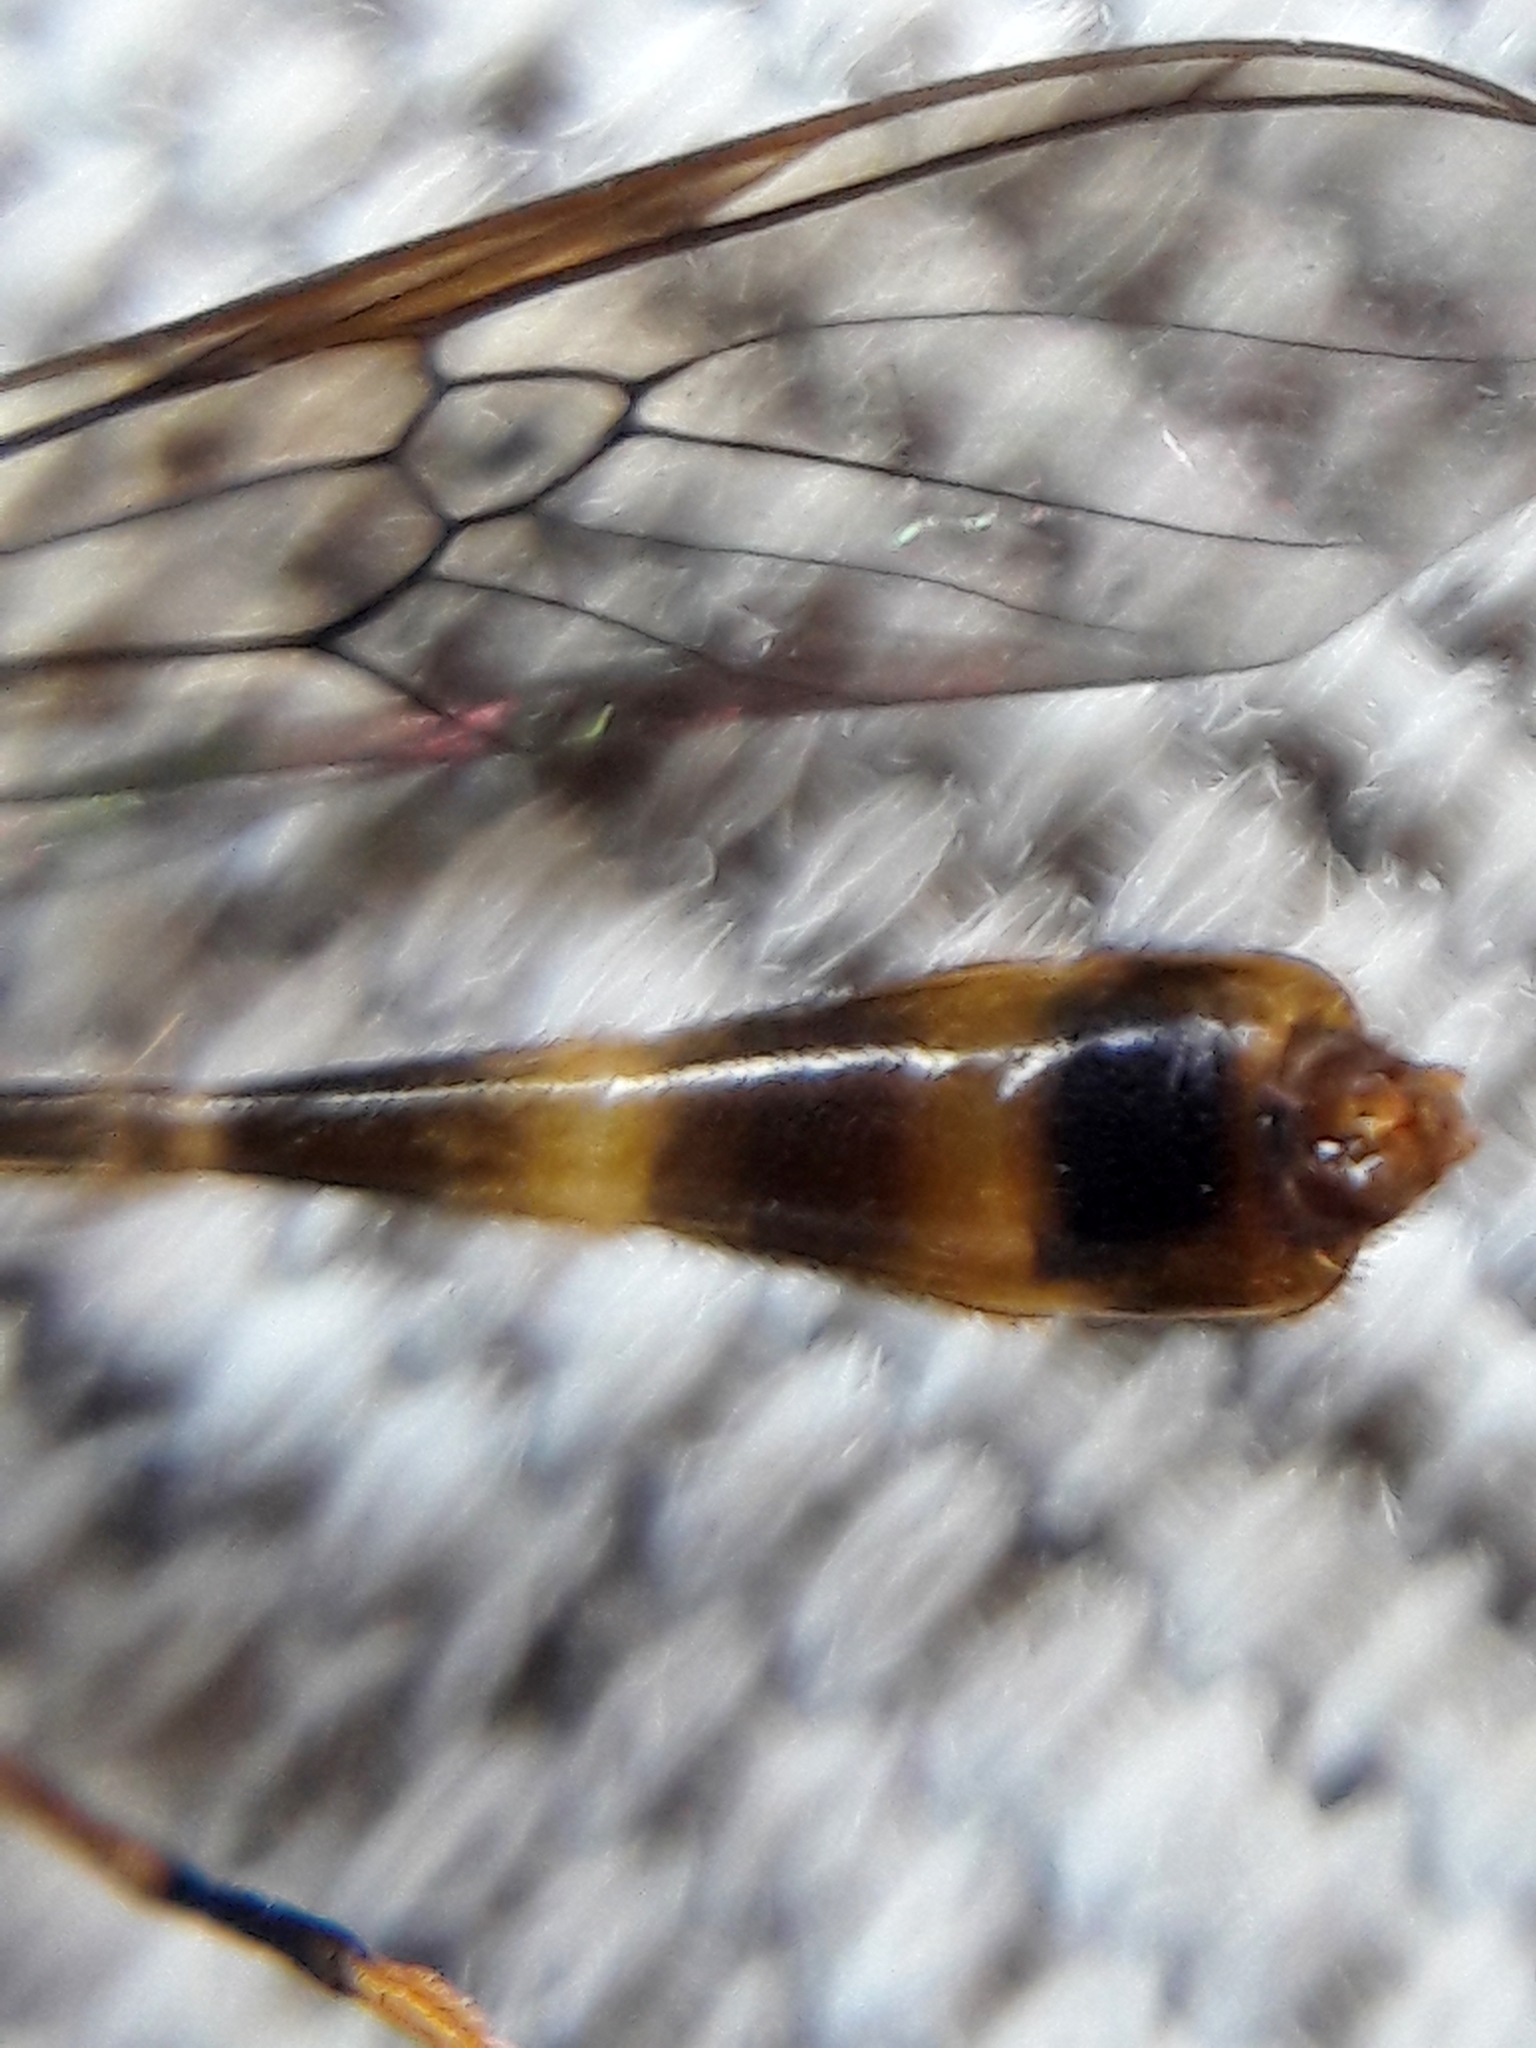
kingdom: Animalia
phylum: Arthropoda
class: Insecta
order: Diptera
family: Stratiomyidae
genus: Sargus
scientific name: Sargus fasciatus
